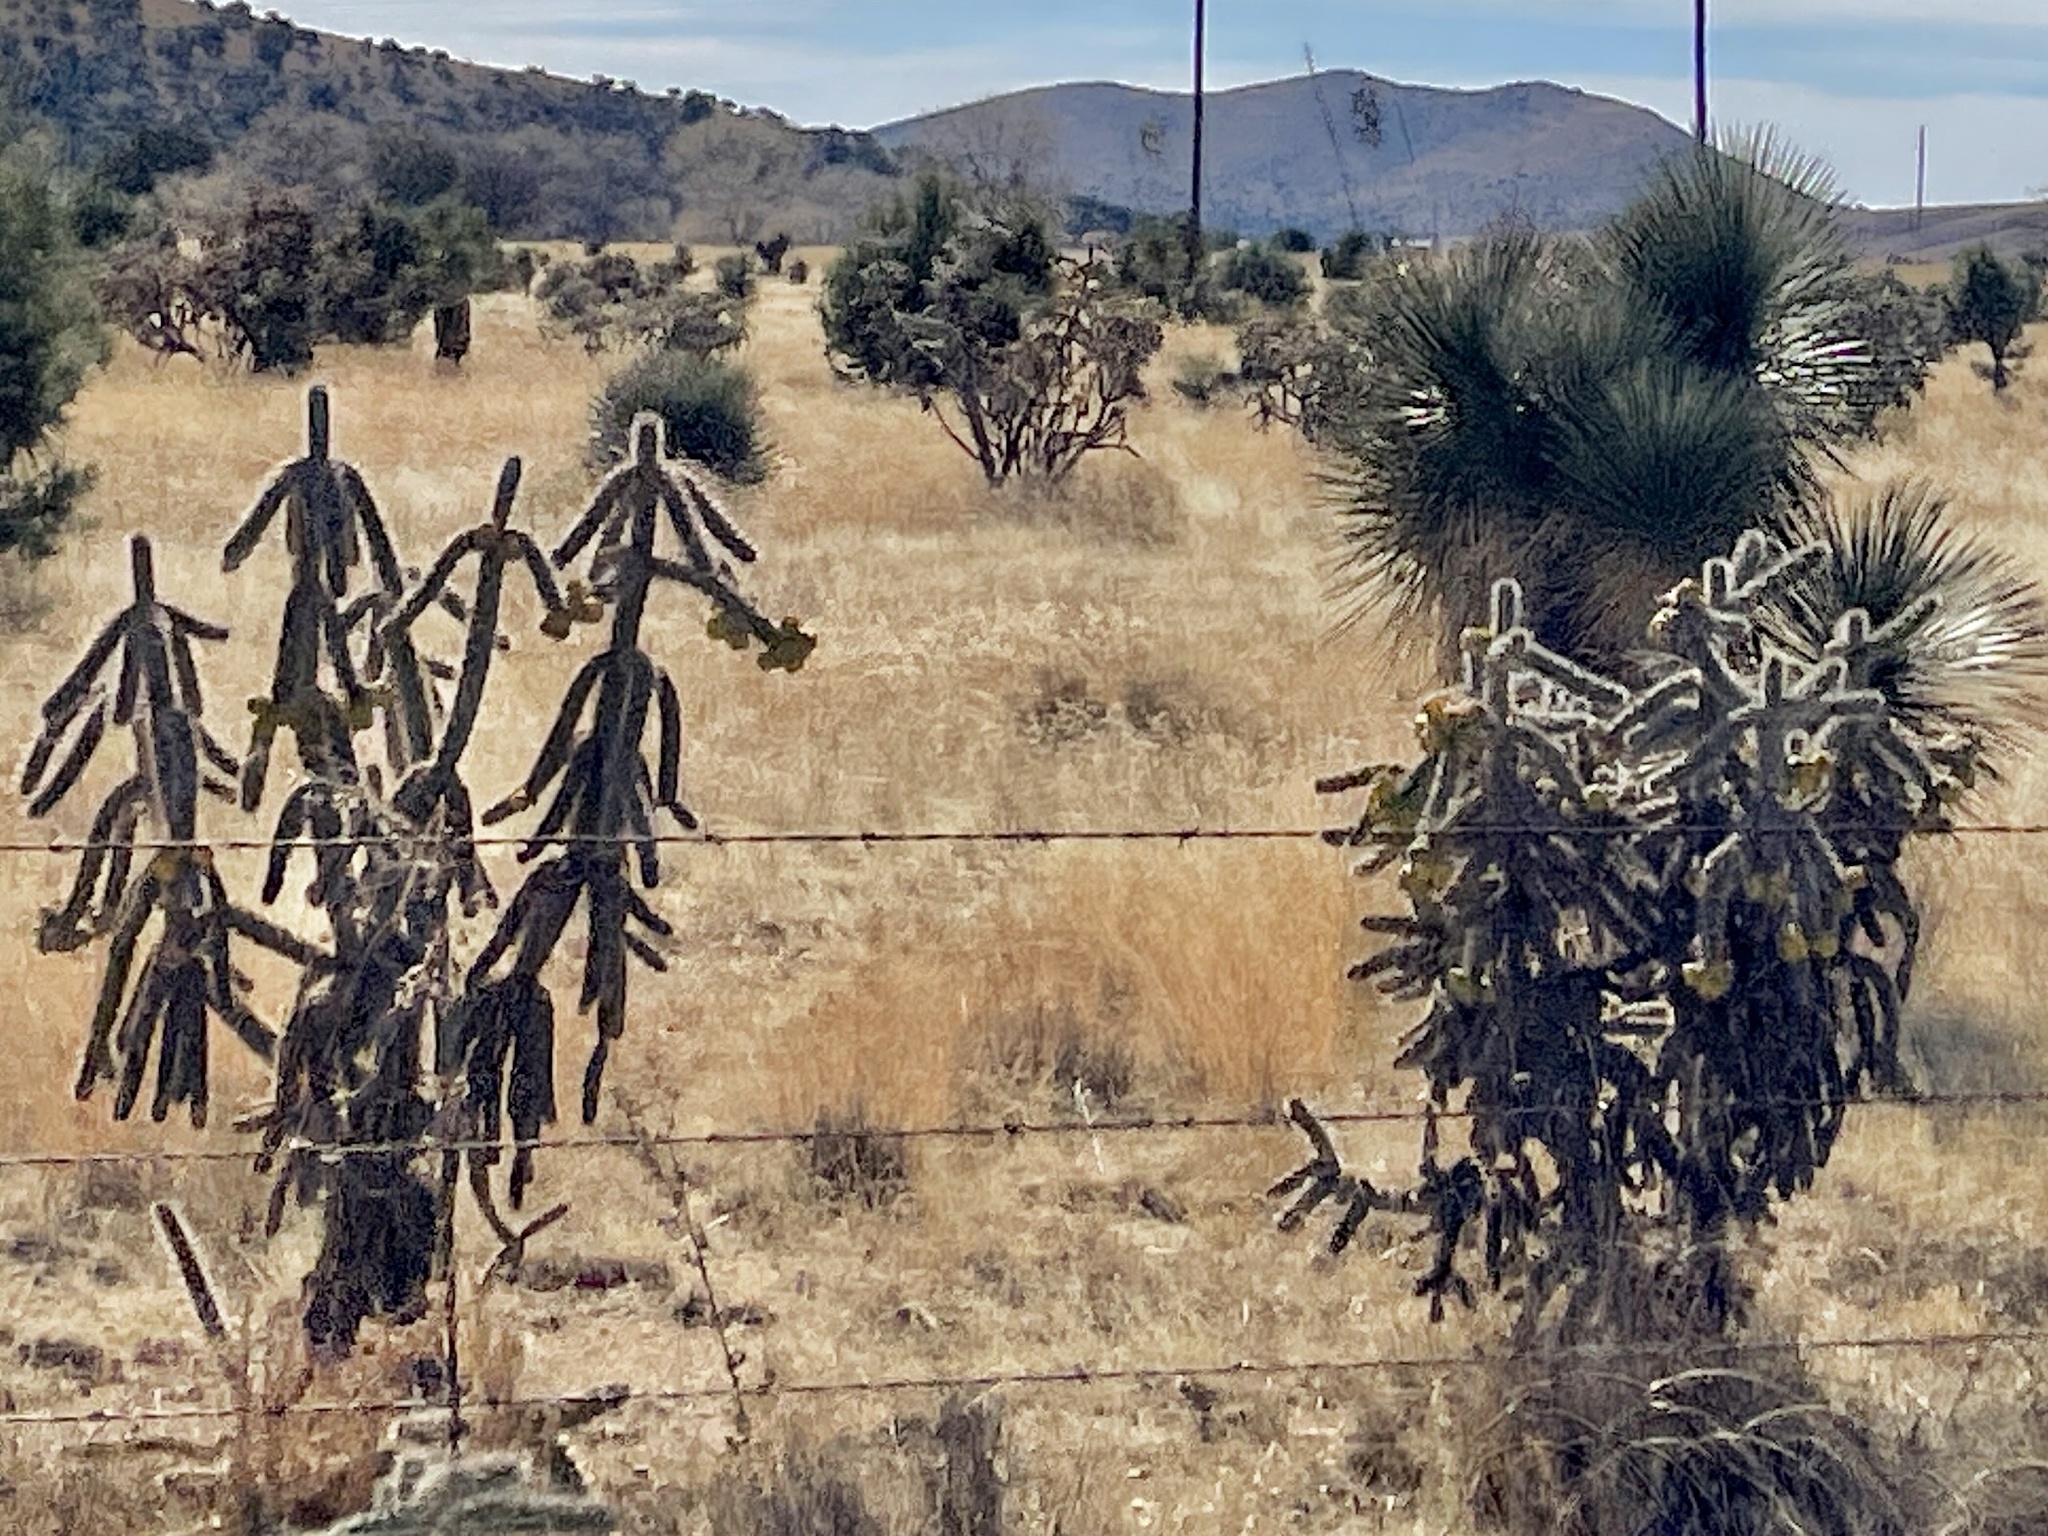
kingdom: Plantae
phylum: Tracheophyta
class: Magnoliopsida
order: Caryophyllales
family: Cactaceae
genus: Cylindropuntia
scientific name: Cylindropuntia imbricata
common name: Candelabrum cactus
